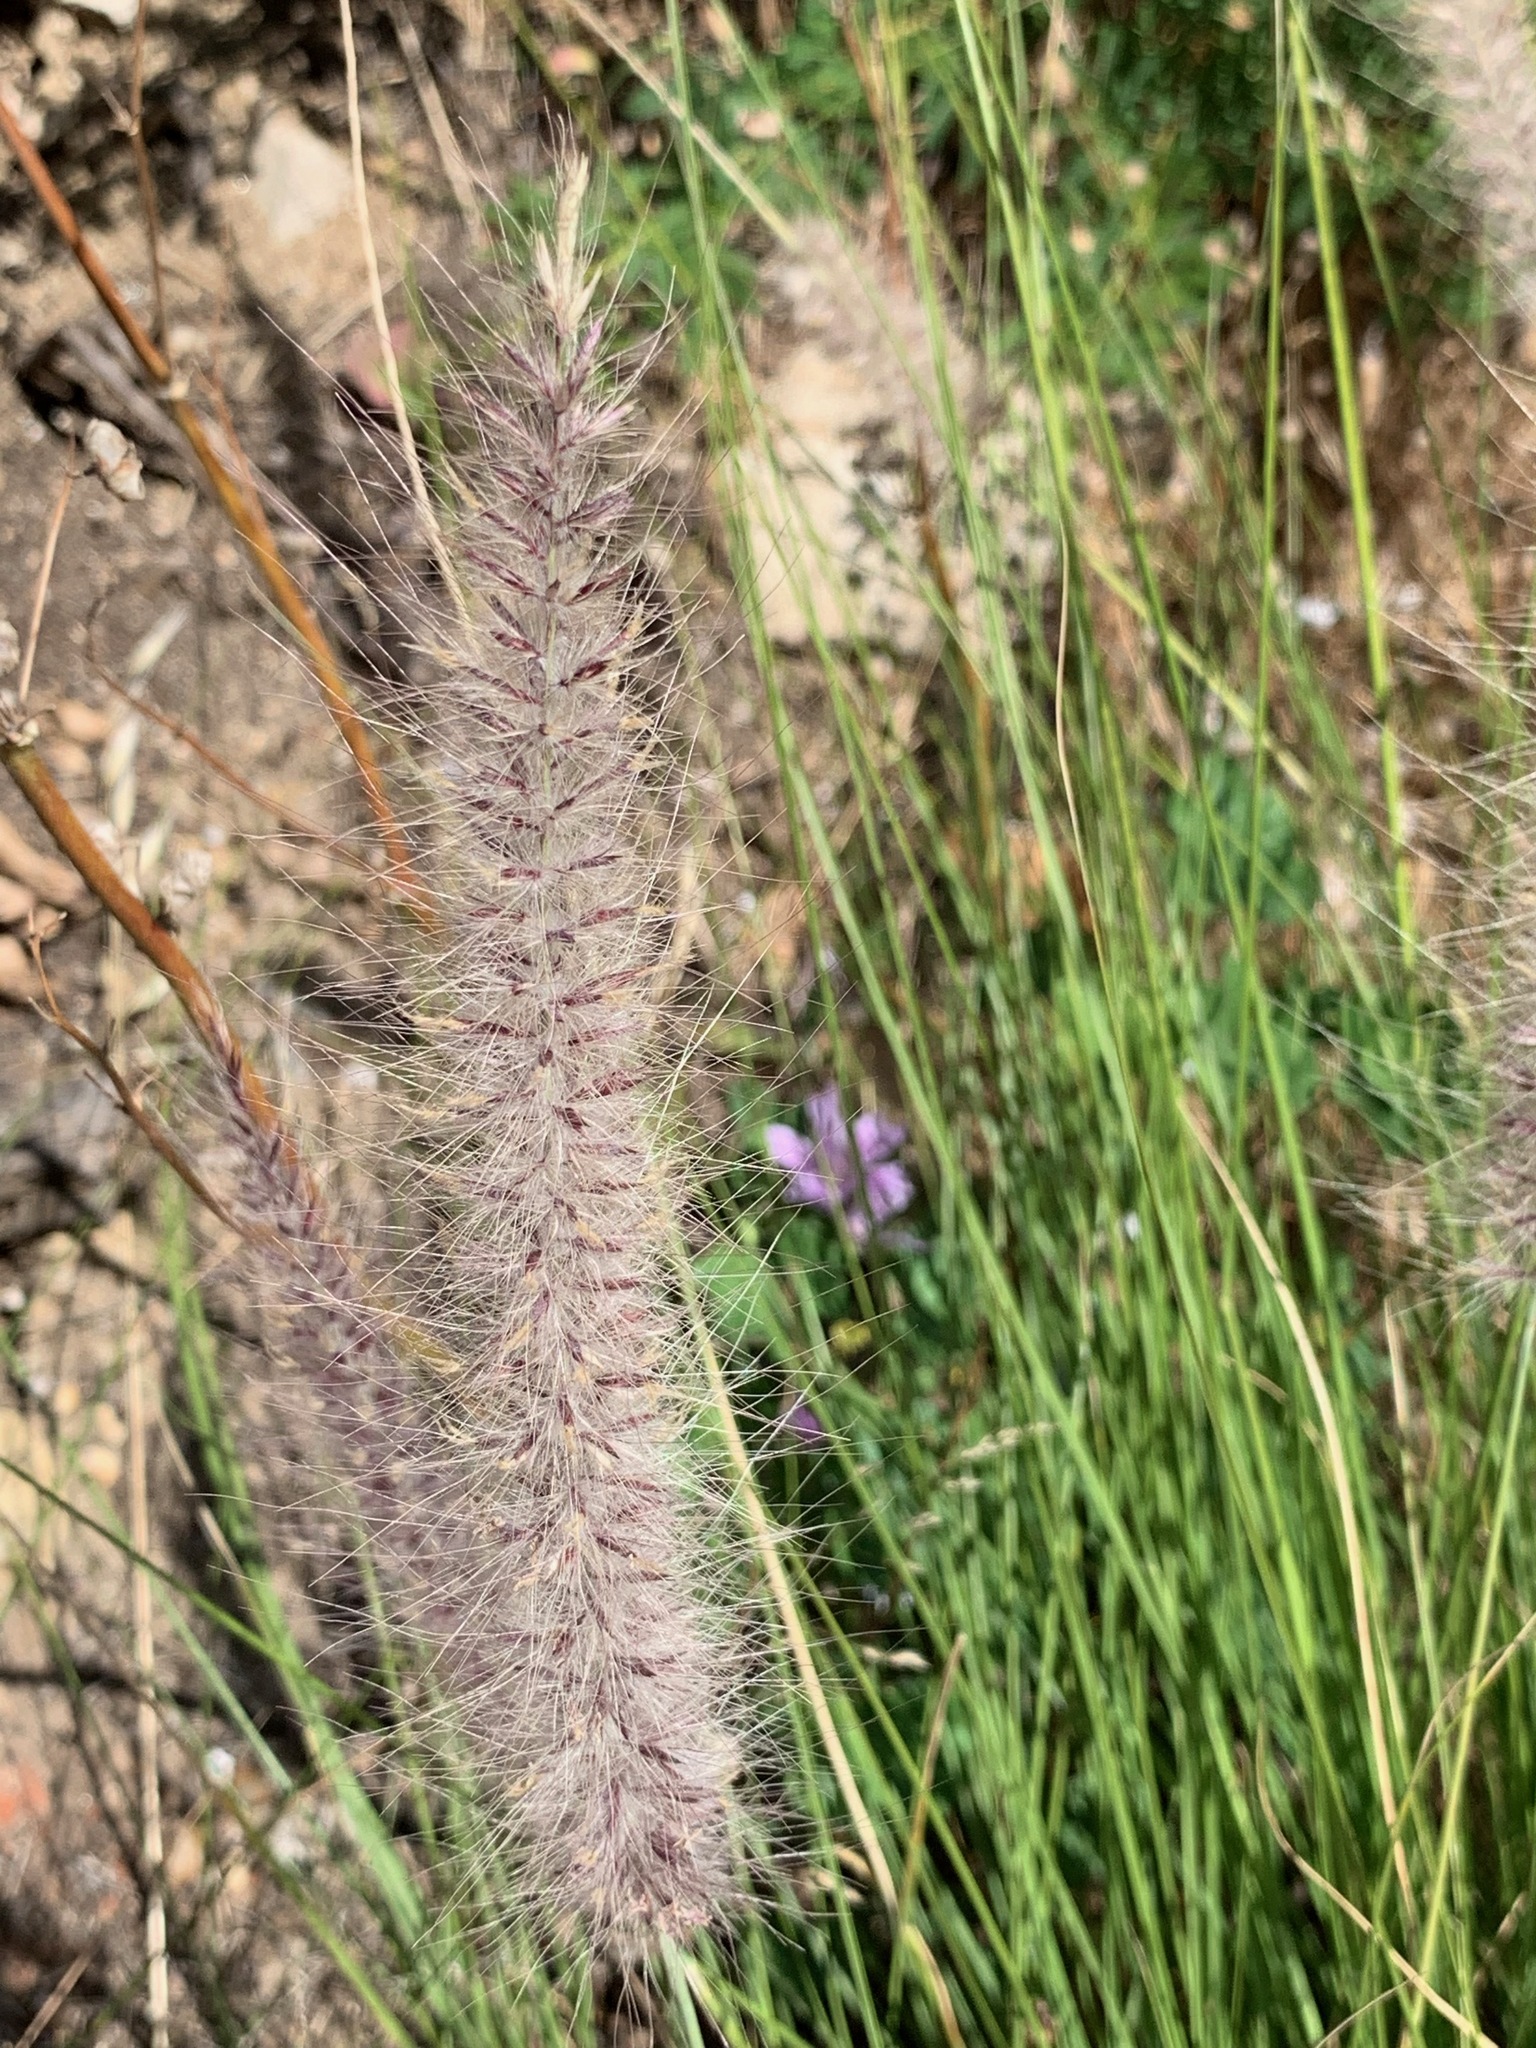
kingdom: Plantae
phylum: Tracheophyta
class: Liliopsida
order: Poales
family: Poaceae
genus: Cenchrus
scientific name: Cenchrus setaceus
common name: Crimson fountaingrass
